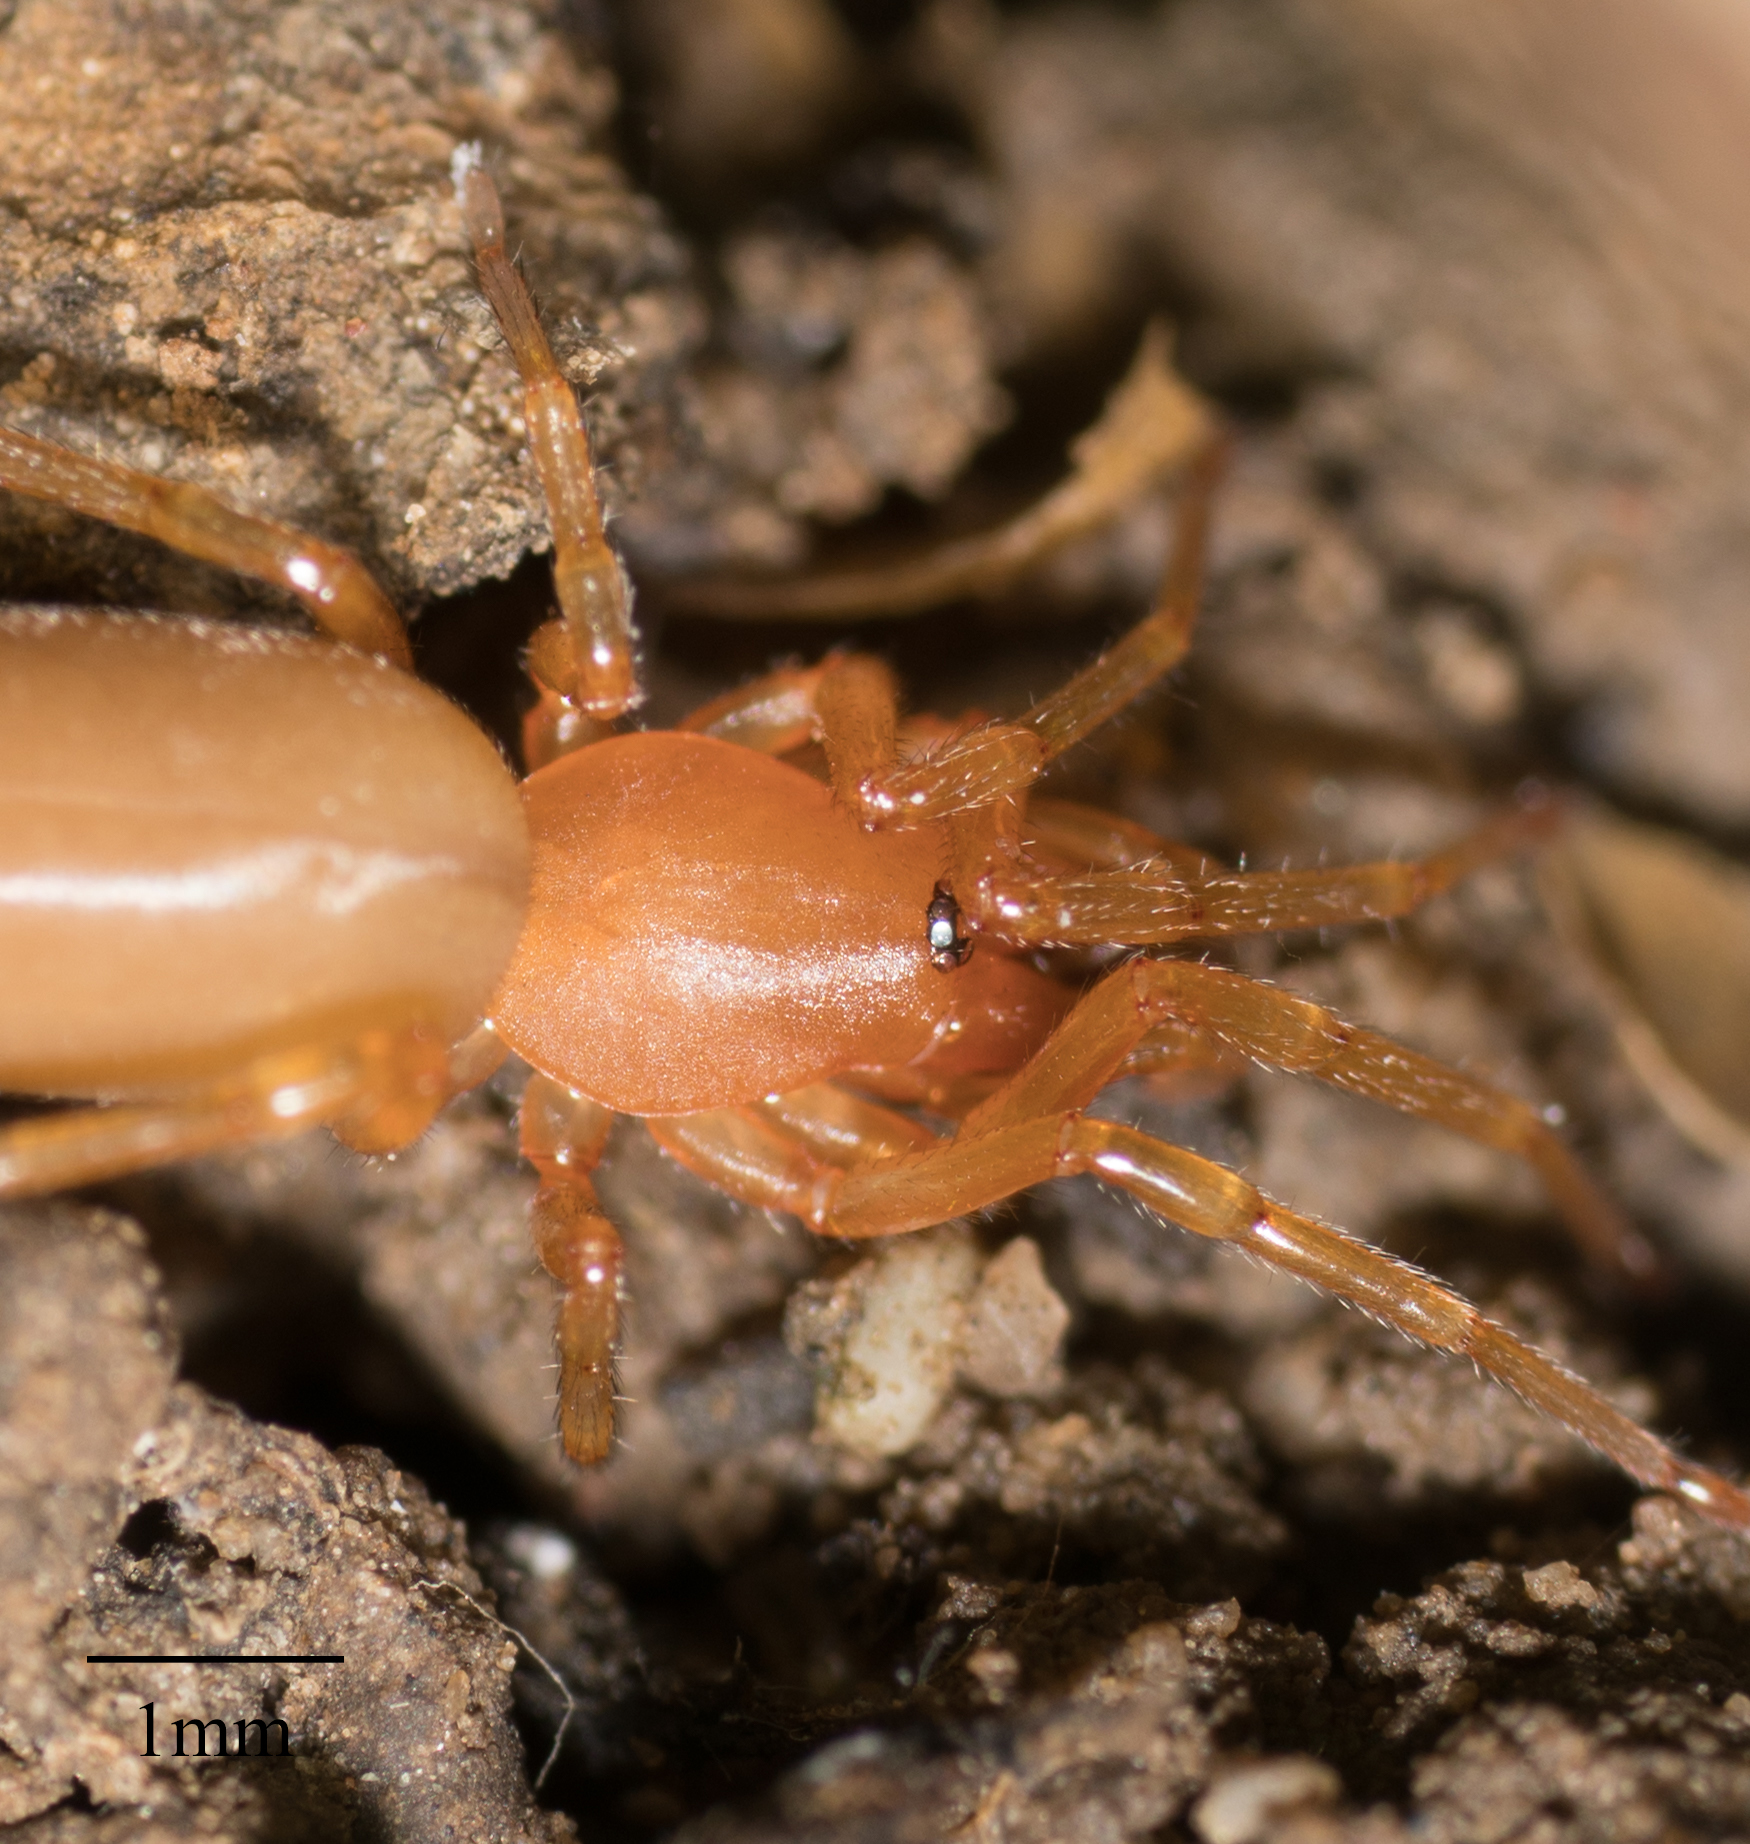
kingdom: Animalia
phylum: Arthropoda
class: Arachnida
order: Araneae
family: Dysderidae
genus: Dysdera
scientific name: Dysdera crocata
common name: Woodlouse spider
